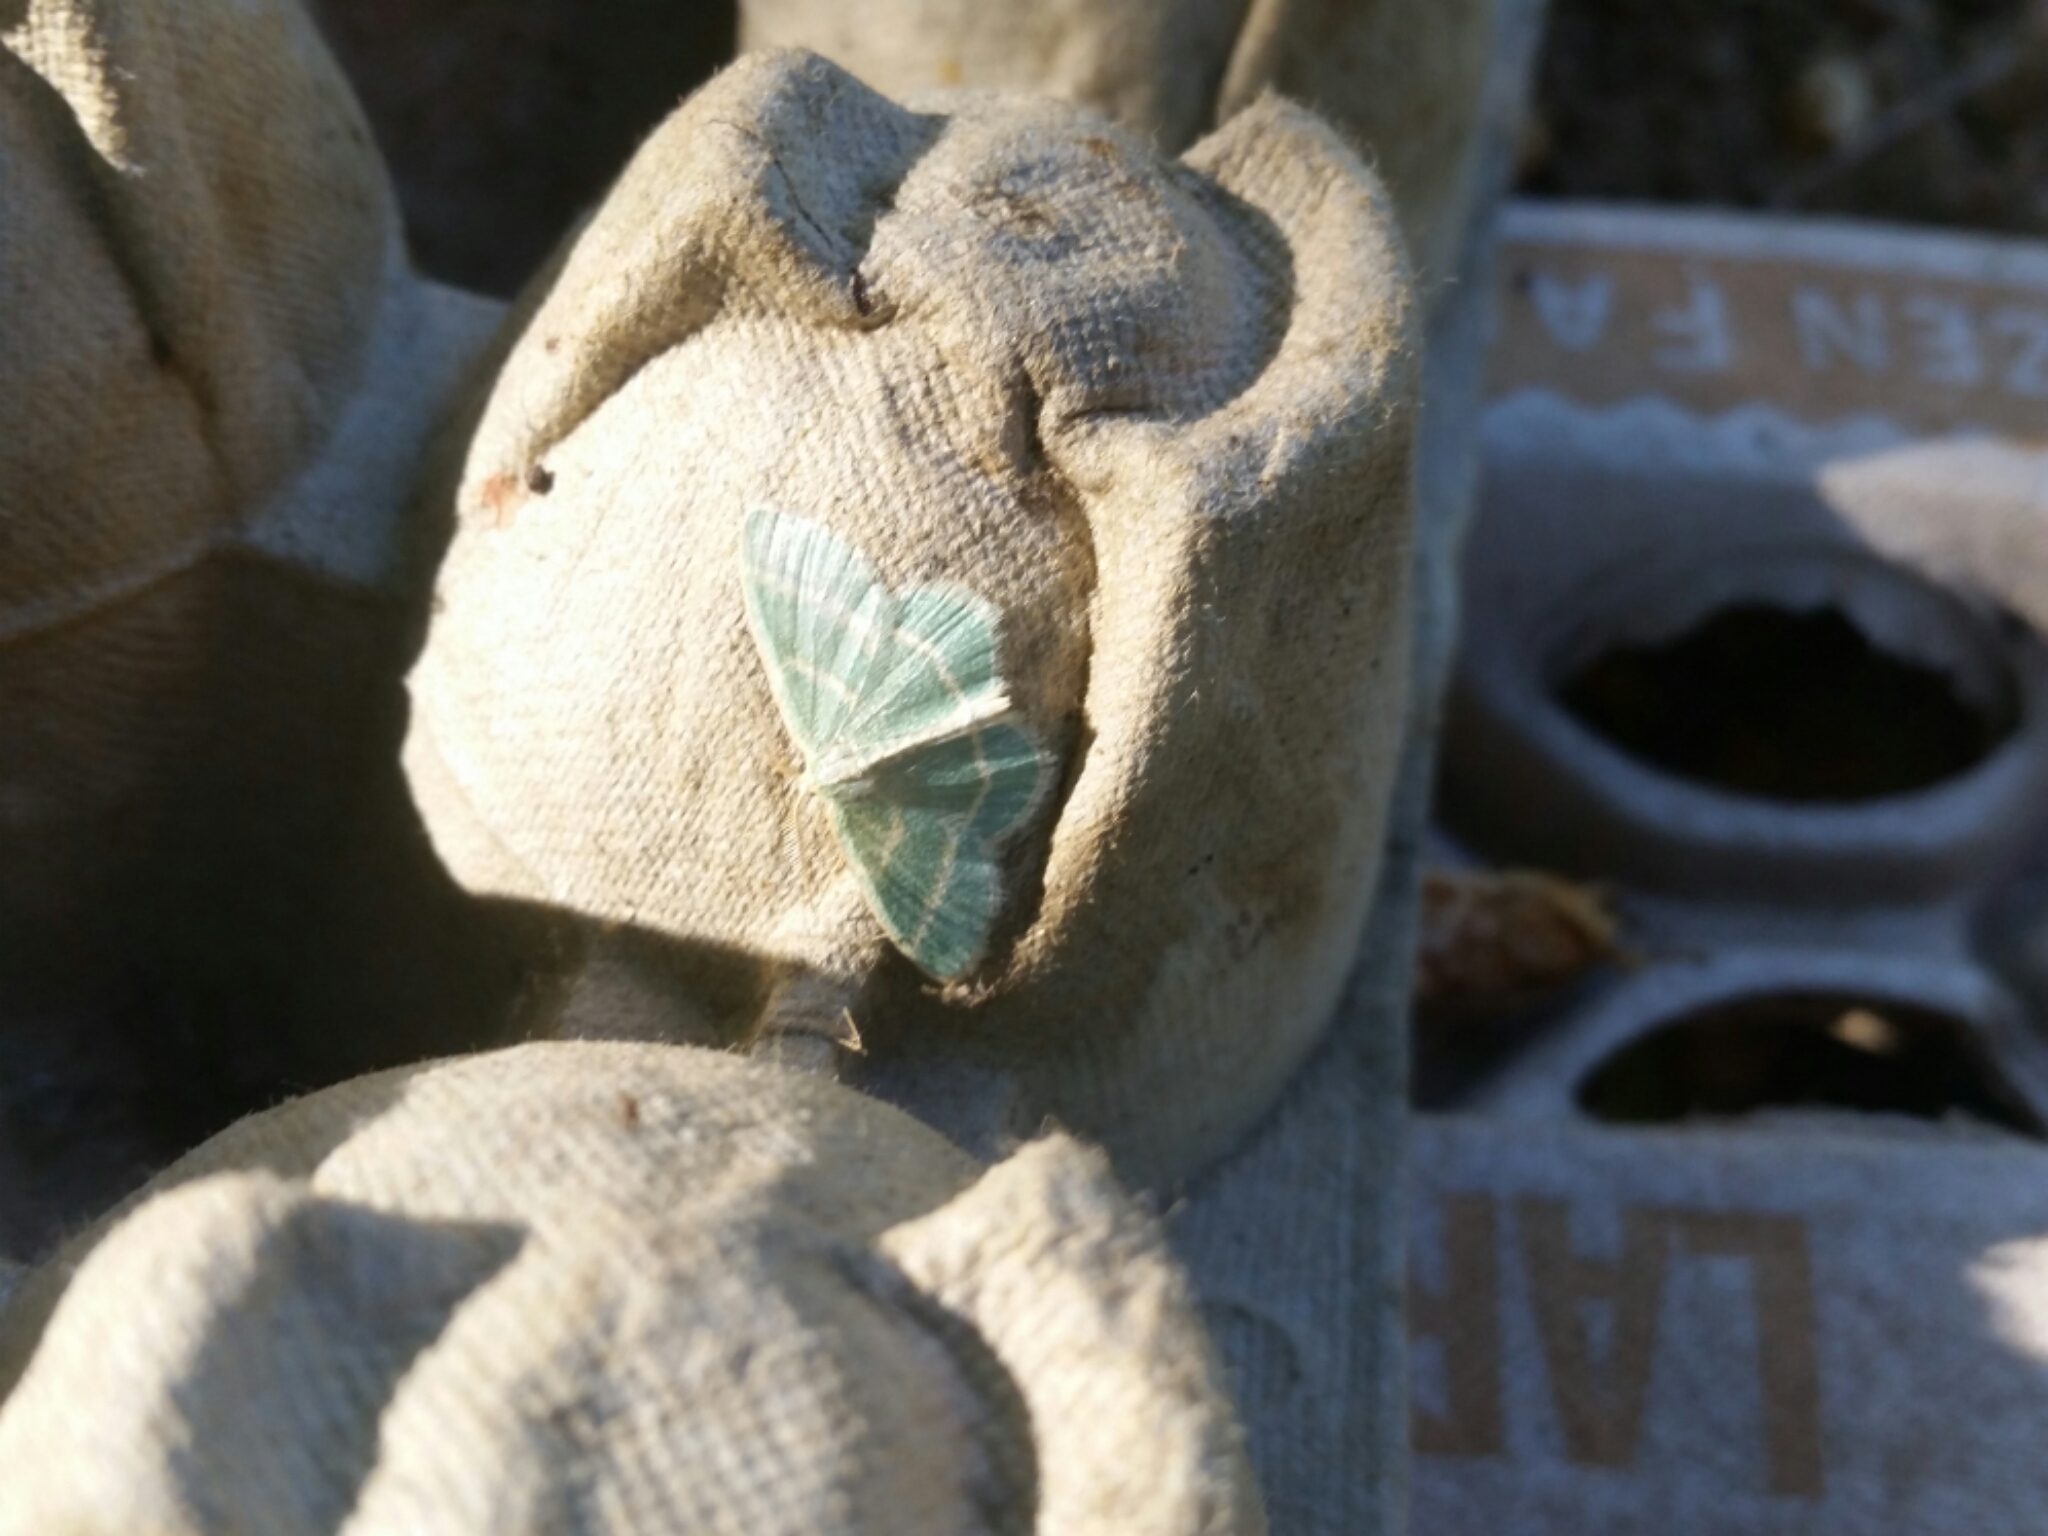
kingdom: Animalia
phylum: Arthropoda
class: Insecta
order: Lepidoptera
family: Geometridae
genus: Chlorochlamys
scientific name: Chlorochlamys chloroleucaria
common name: Blackberry looper
